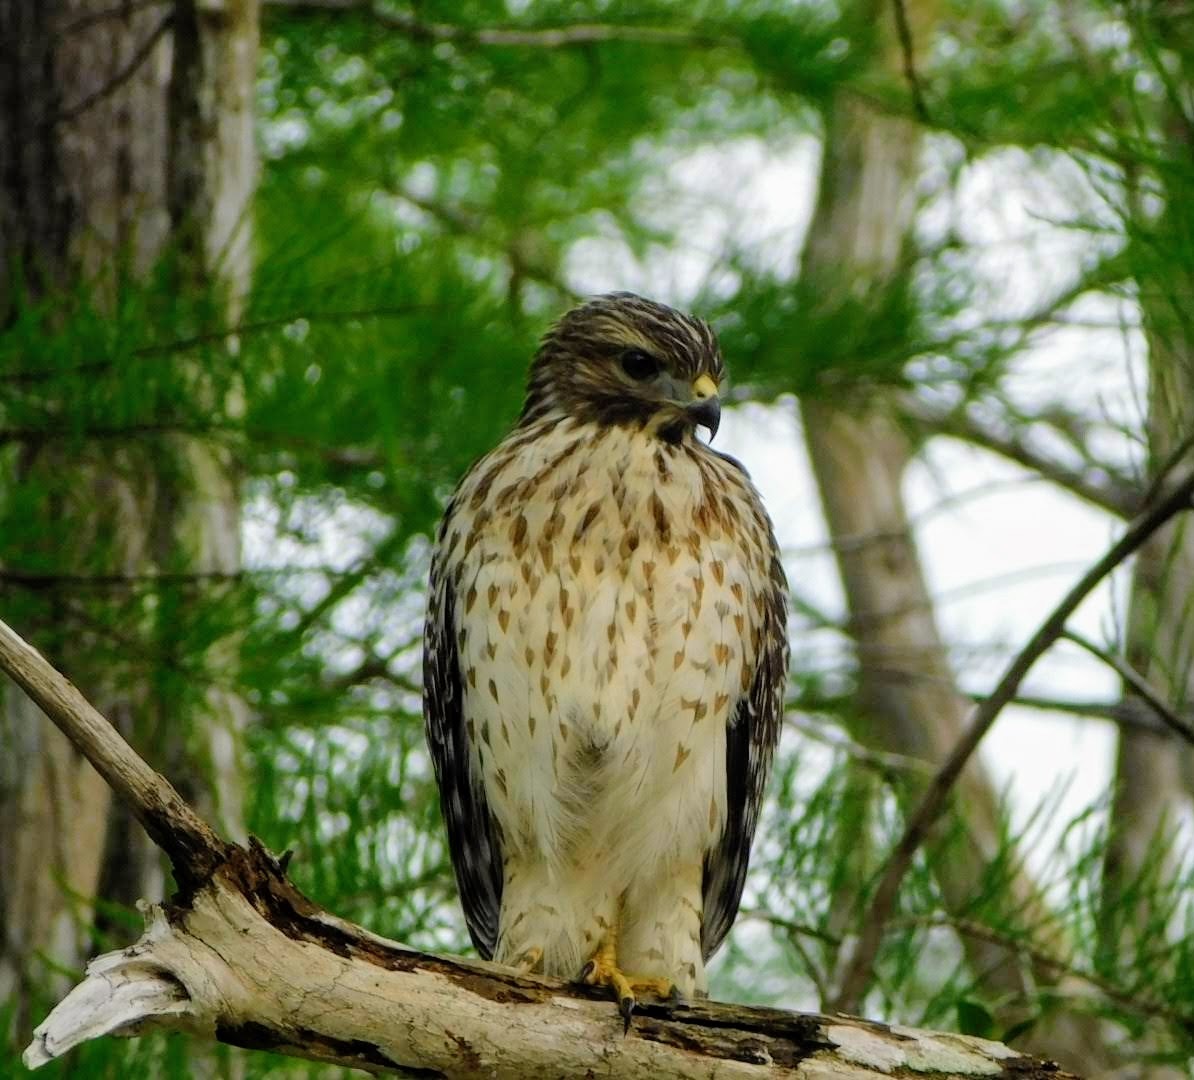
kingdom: Animalia
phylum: Chordata
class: Aves
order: Accipitriformes
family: Accipitridae
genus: Buteo
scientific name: Buteo lineatus
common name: Red-shouldered hawk
